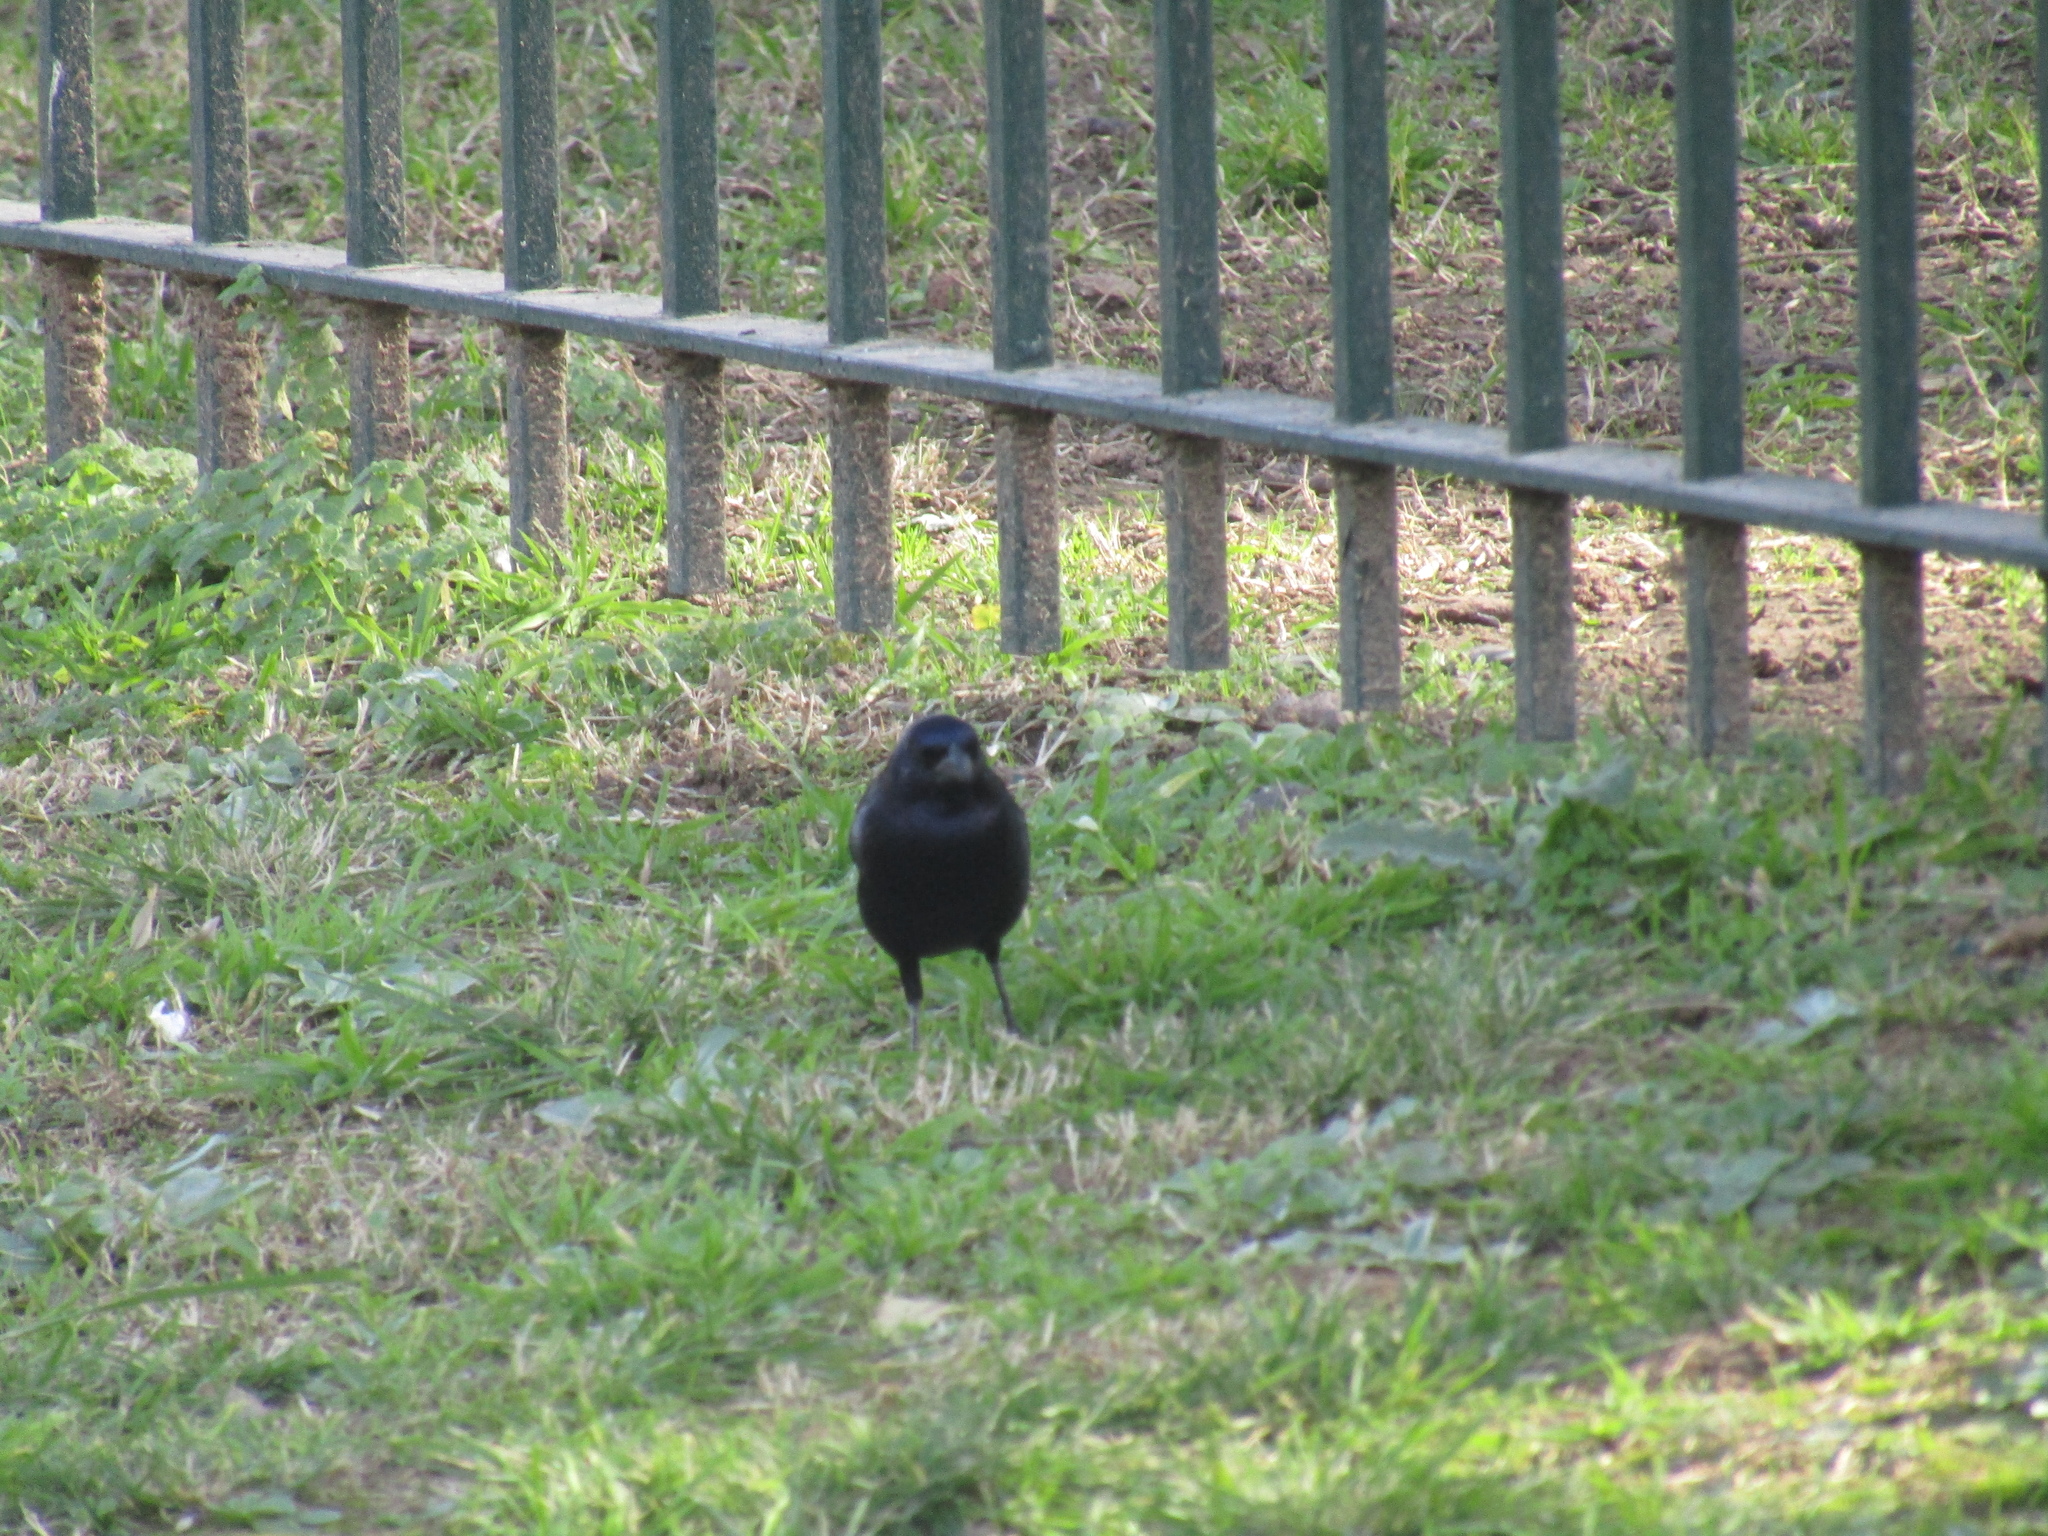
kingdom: Animalia
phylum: Chordata
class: Aves
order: Passeriformes
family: Icteridae
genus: Molothrus
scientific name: Molothrus bonariensis
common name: Shiny cowbird
